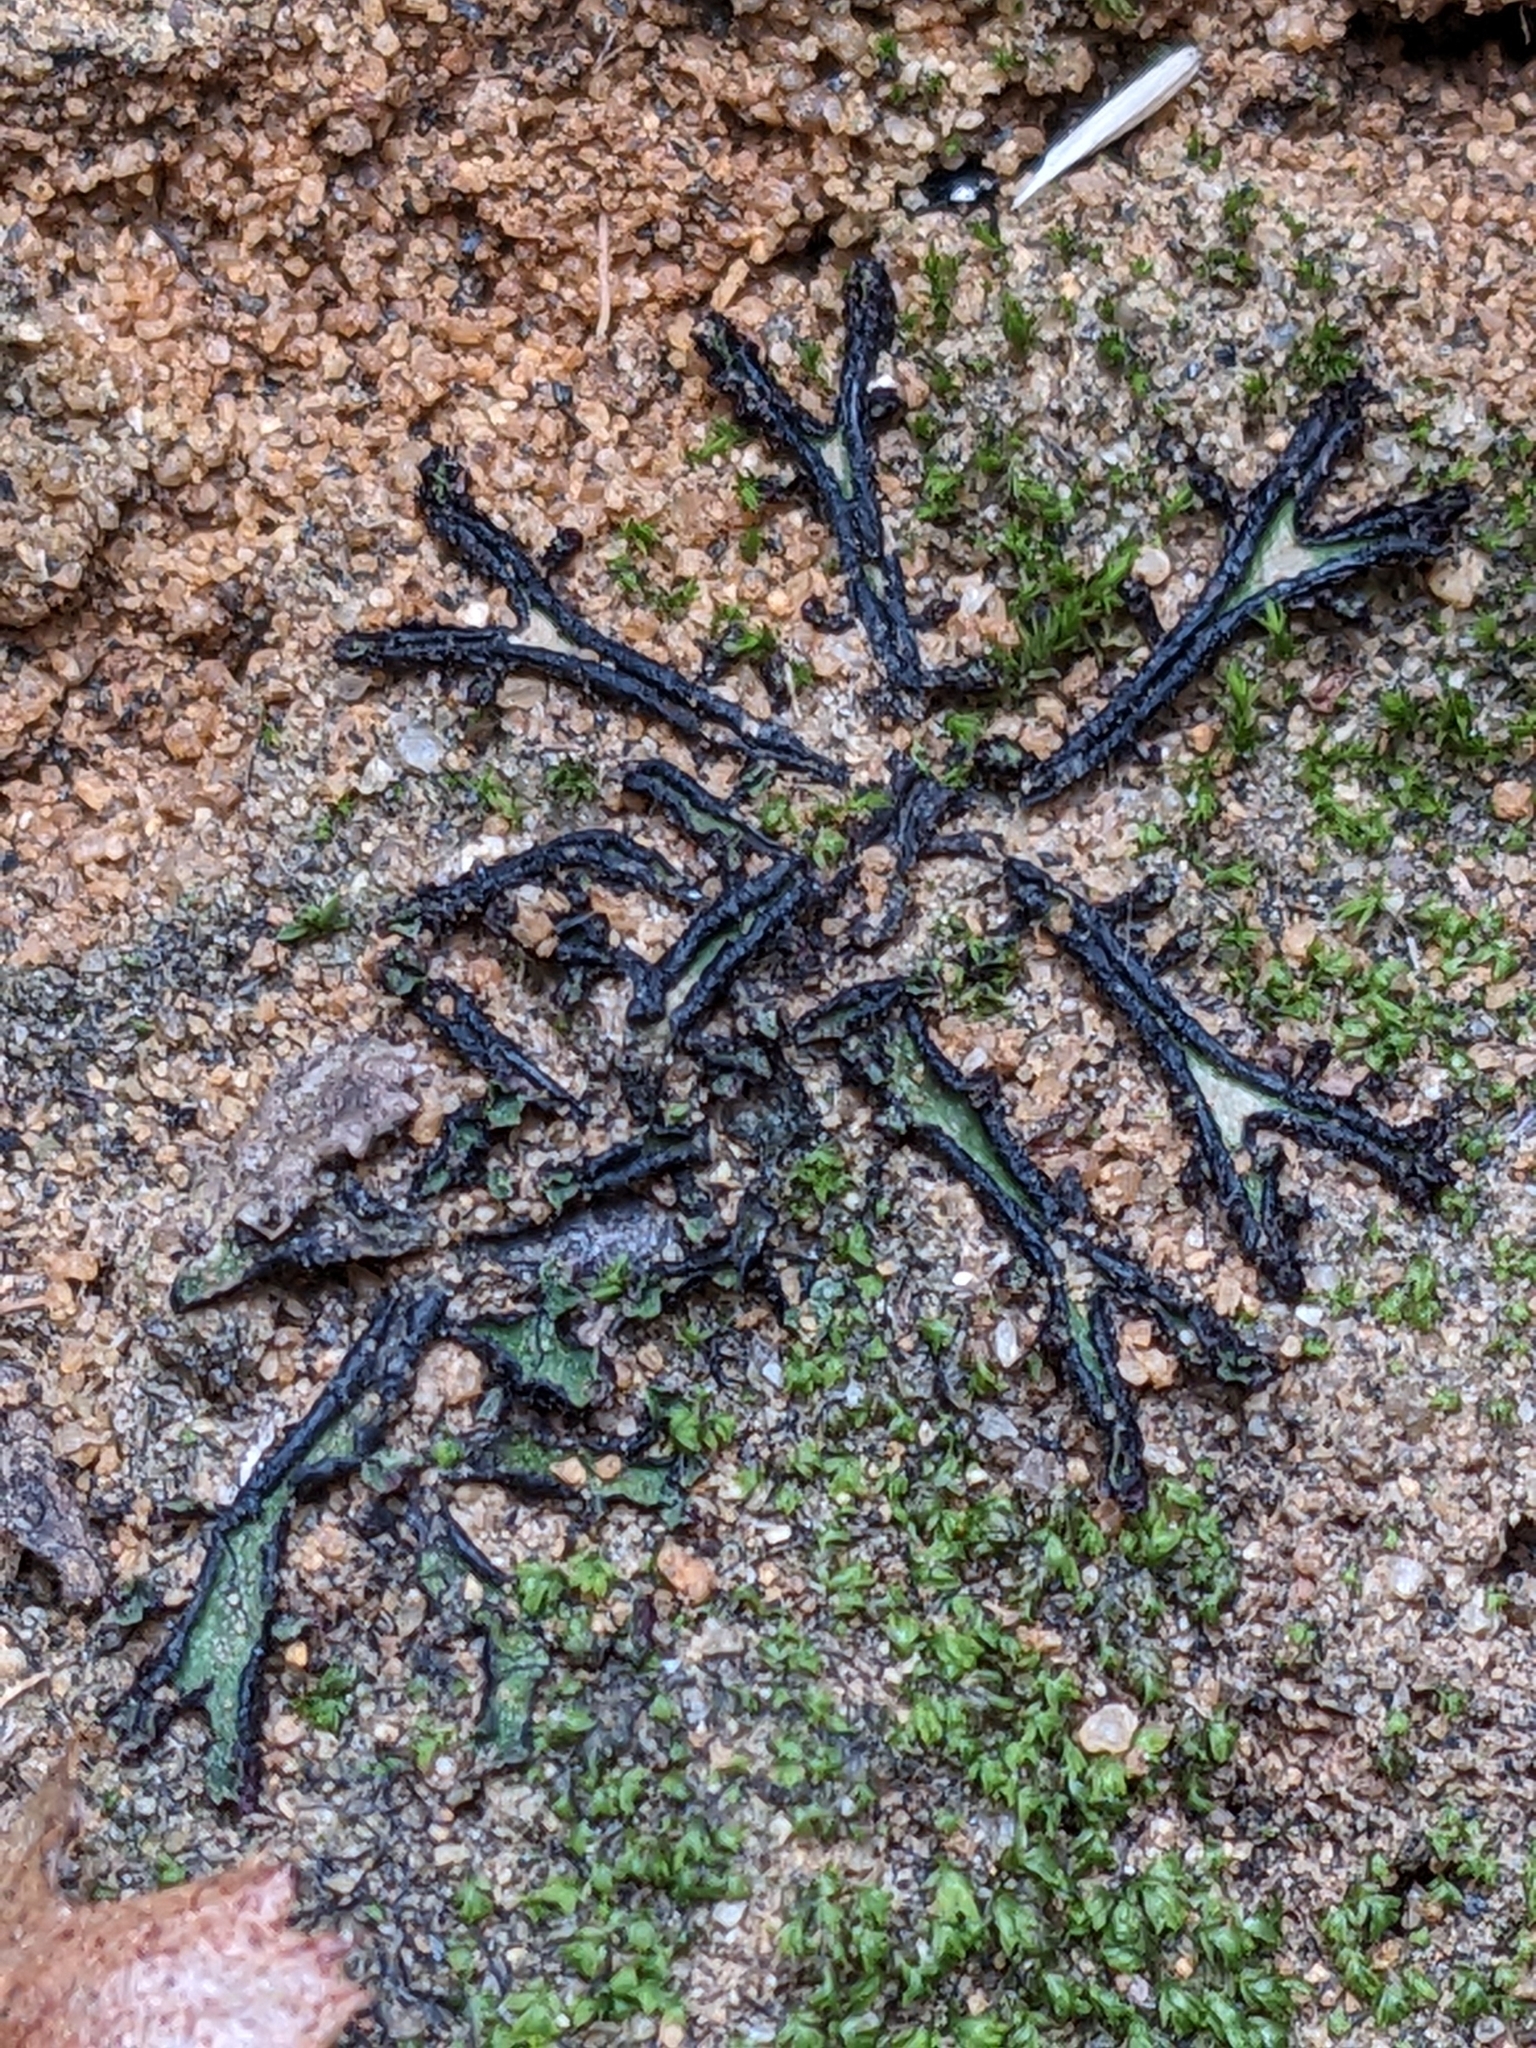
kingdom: Plantae
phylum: Marchantiophyta
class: Marchantiopsida
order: Marchantiales
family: Targioniaceae
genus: Targionia
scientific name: Targionia hypophylla
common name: Orobus-seed liverwort
